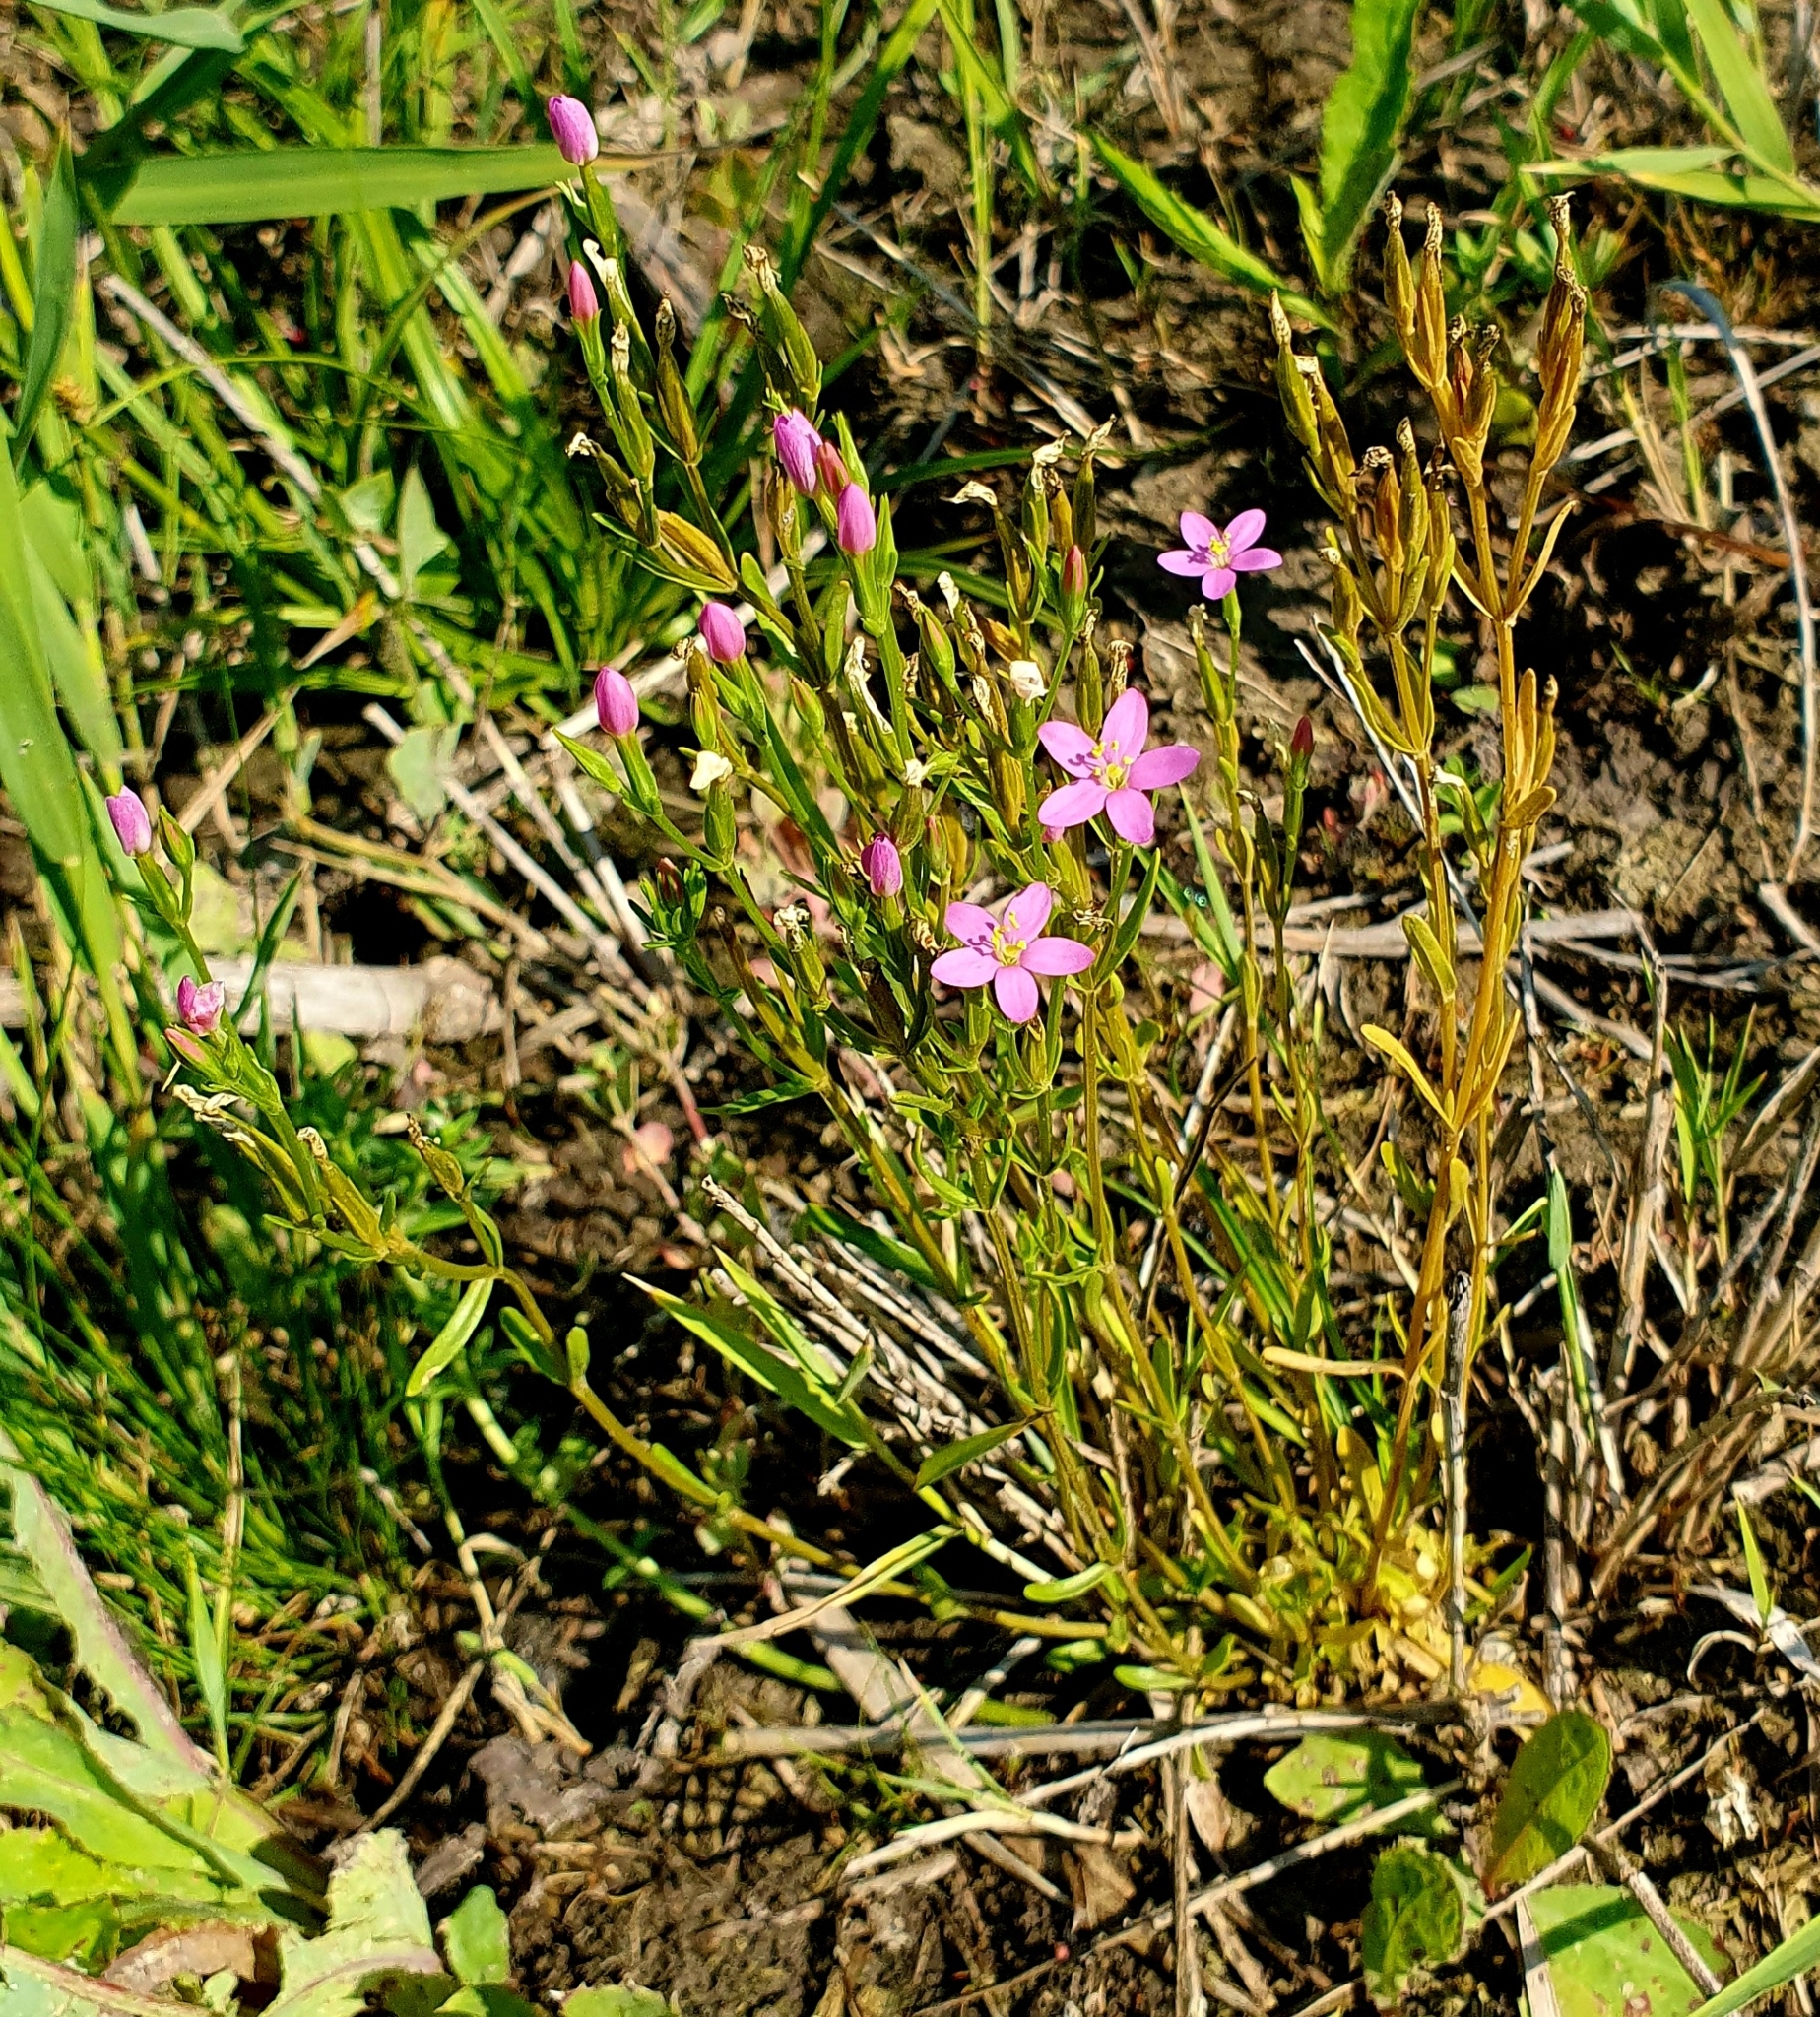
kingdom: Plantae
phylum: Tracheophyta
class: Magnoliopsida
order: Gentianales
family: Gentianaceae
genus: Centaurium
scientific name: Centaurium pulchellum
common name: Lesser centaury
